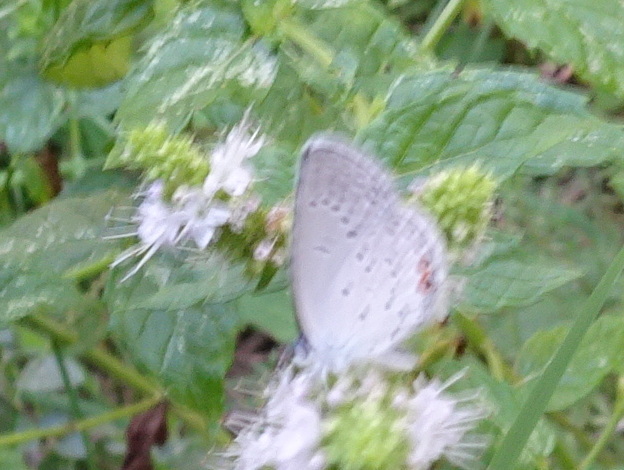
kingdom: Animalia
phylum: Arthropoda
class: Insecta
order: Lepidoptera
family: Lycaenidae
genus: Elkalyce
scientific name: Elkalyce comyntas
